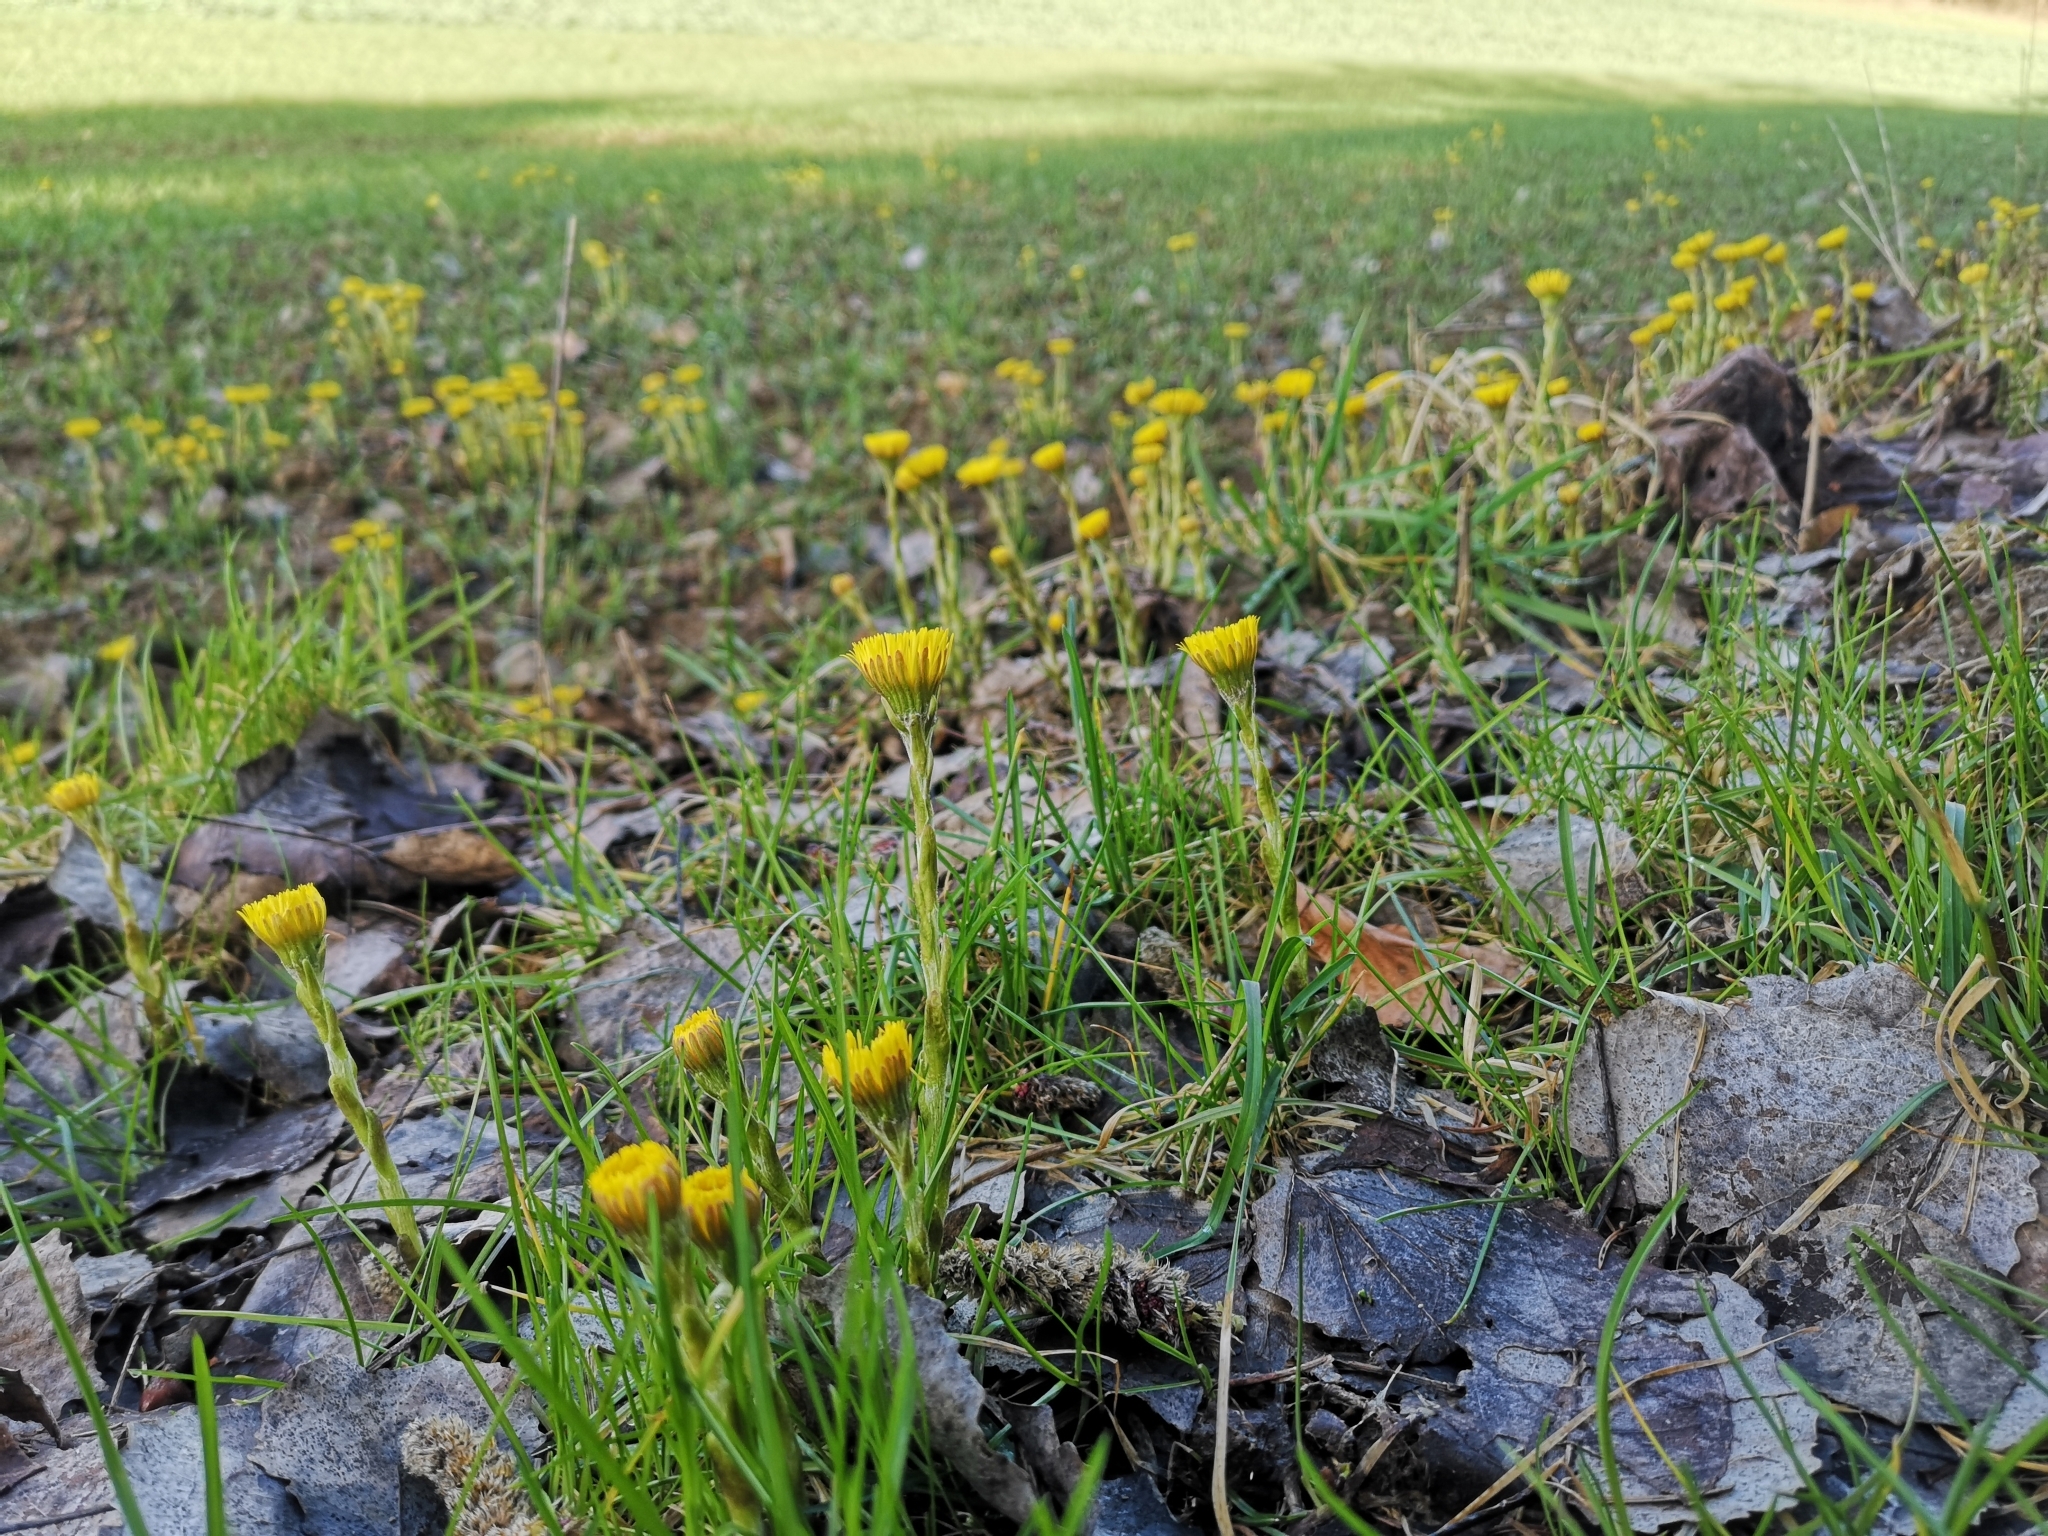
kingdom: Plantae
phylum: Tracheophyta
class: Magnoliopsida
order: Asterales
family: Asteraceae
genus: Tussilago
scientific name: Tussilago farfara
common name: Coltsfoot
